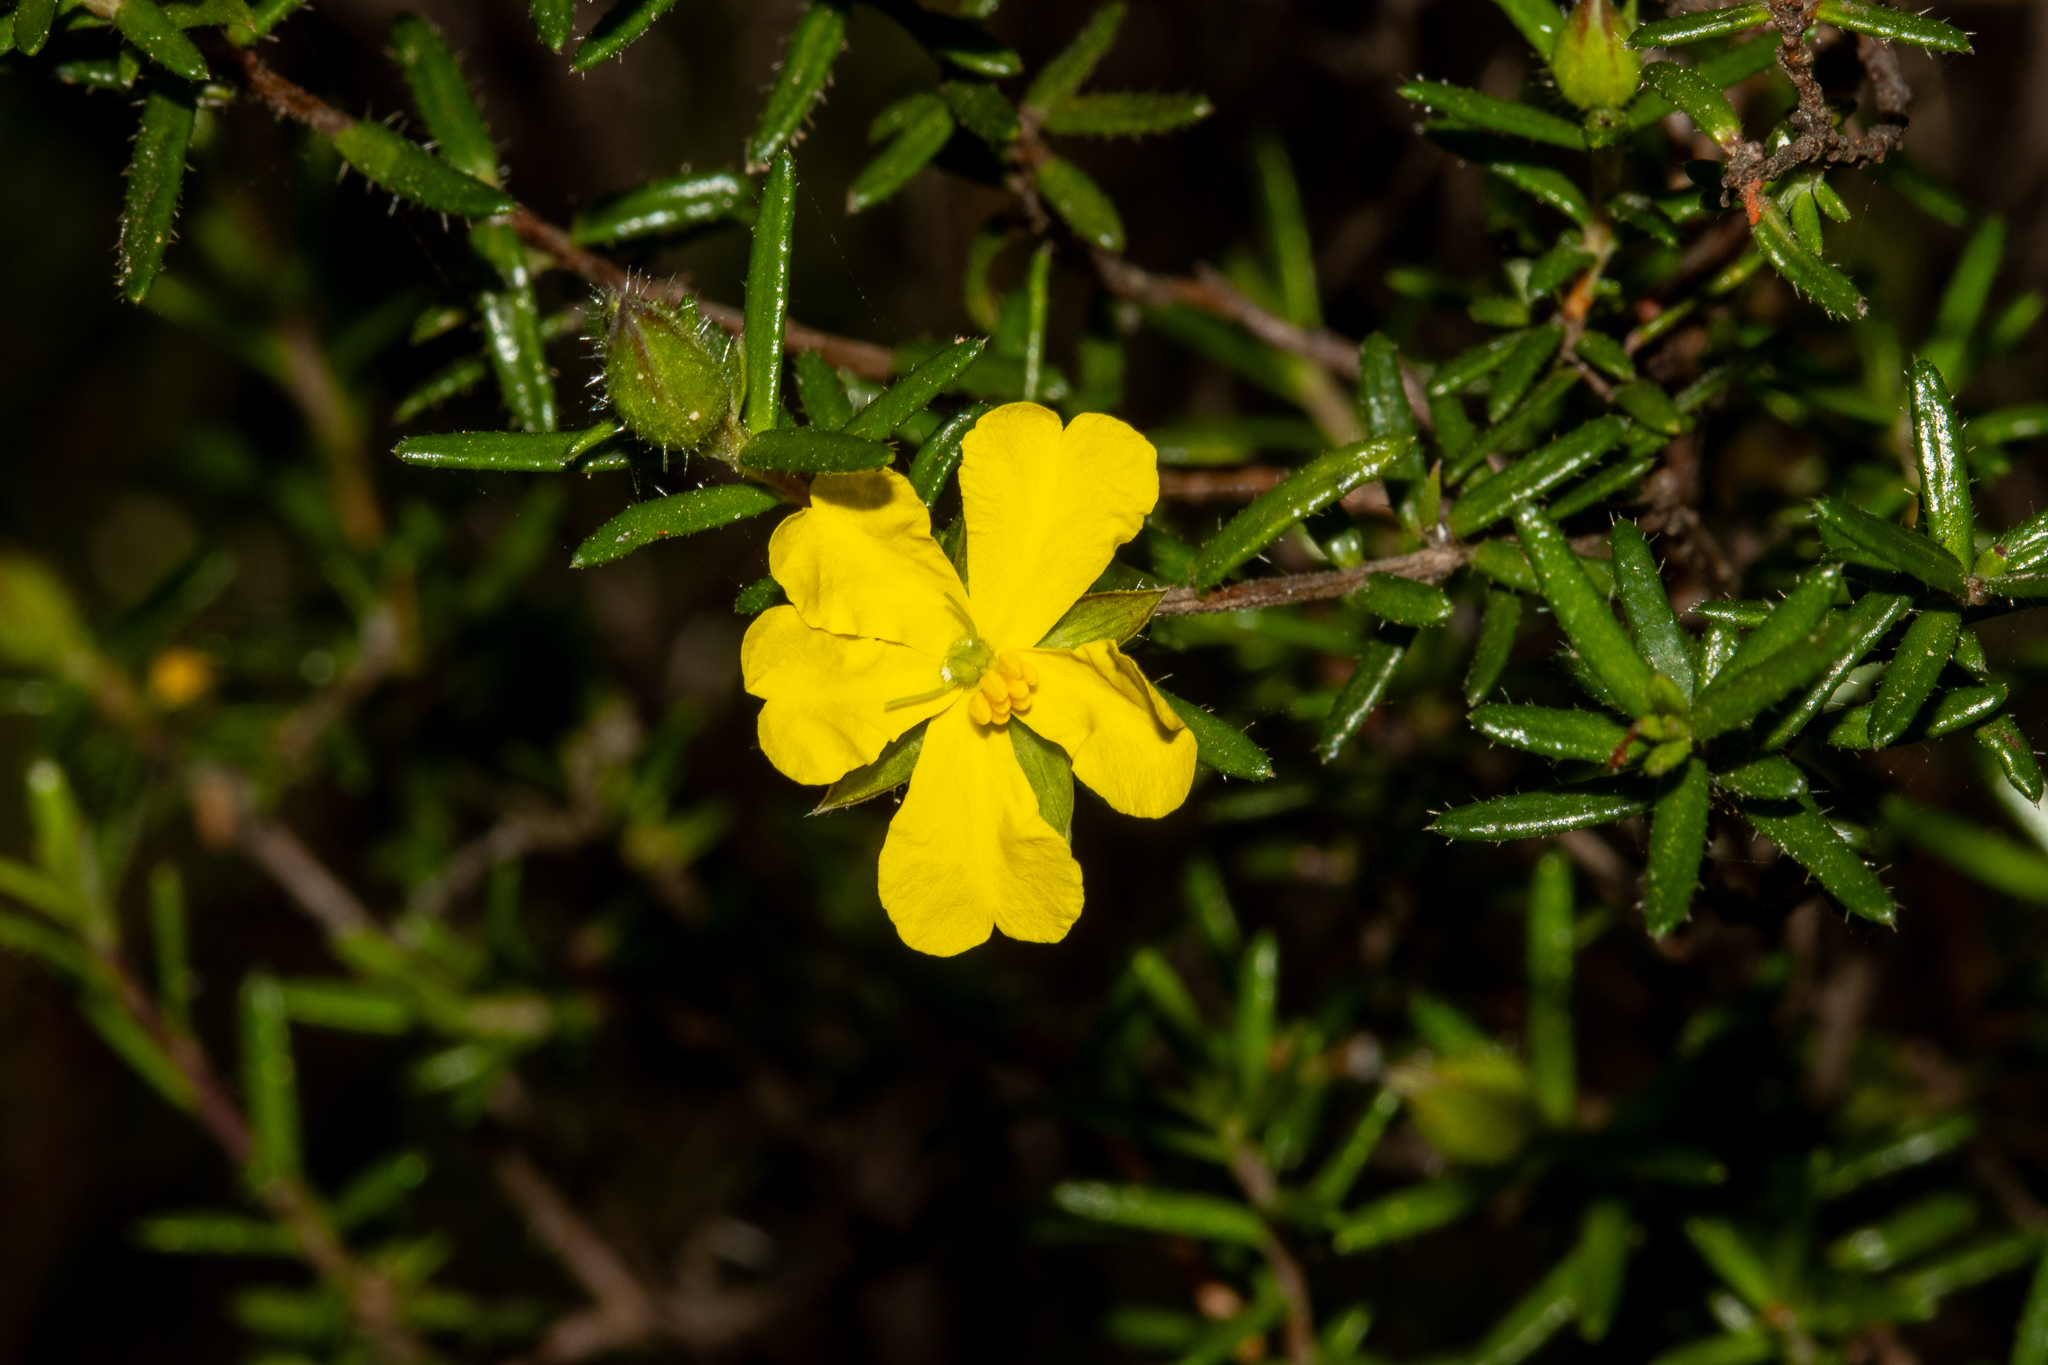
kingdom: Plantae
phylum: Tracheophyta
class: Magnoliopsida
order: Dilleniales
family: Dilleniaceae
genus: Hibbertia
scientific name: Hibbertia riparia
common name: Erect guinea-flower
